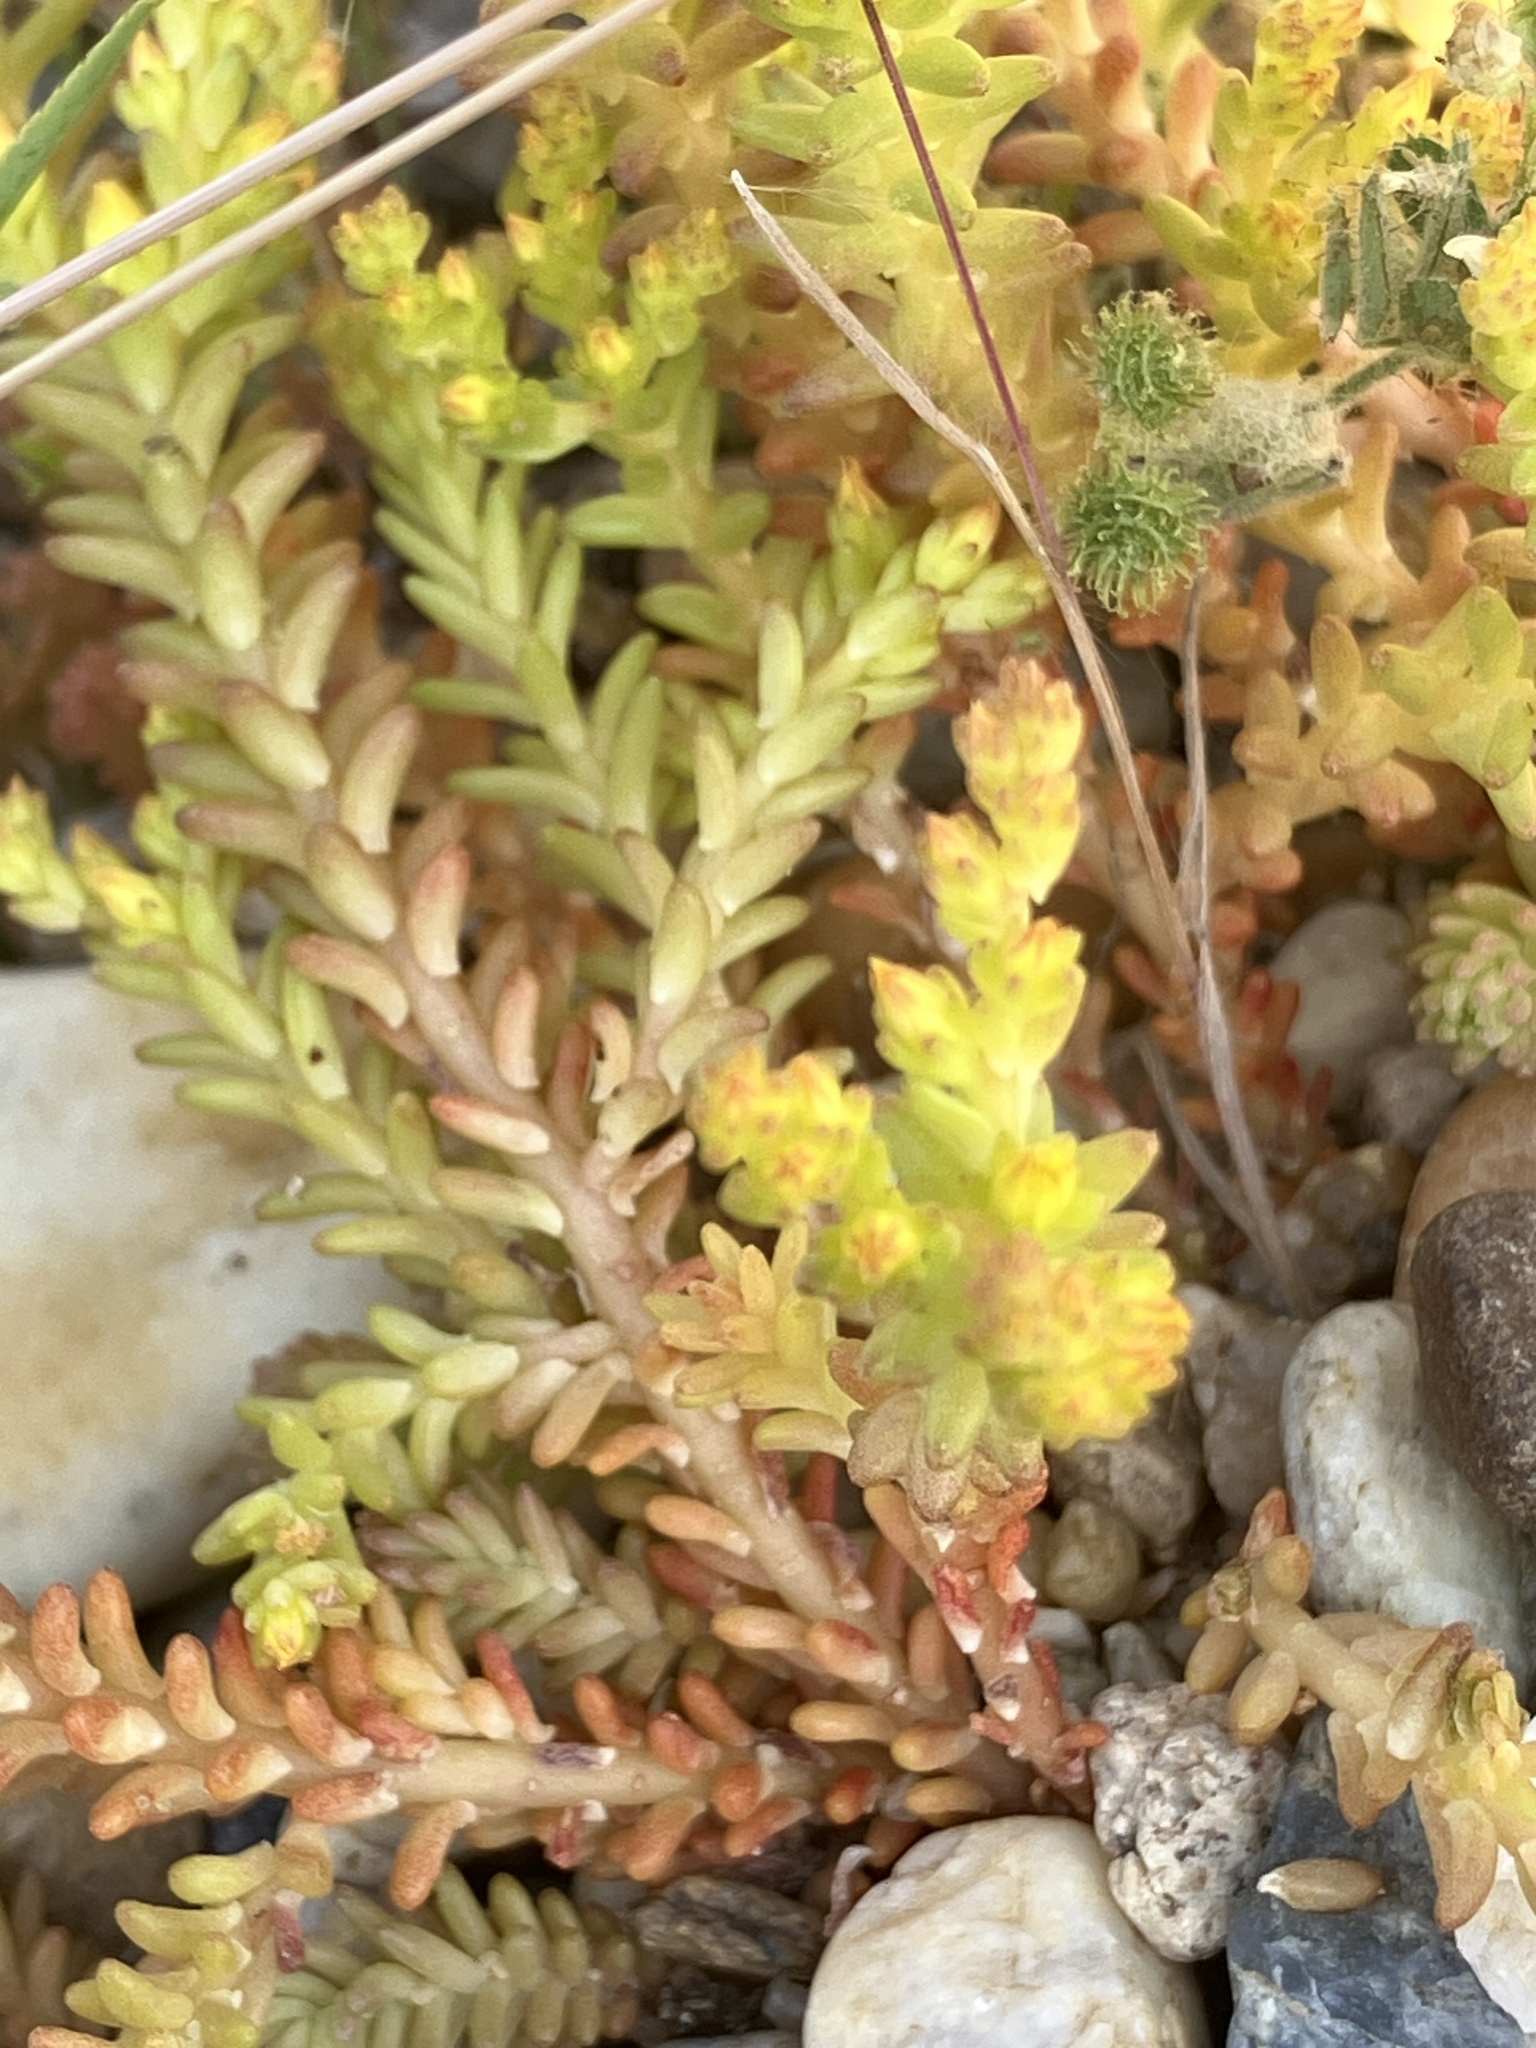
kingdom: Plantae
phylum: Tracheophyta
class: Magnoliopsida
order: Saxifragales
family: Crassulaceae
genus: Sedum
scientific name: Sedum sexangulare
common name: Tasteless stonecrop
